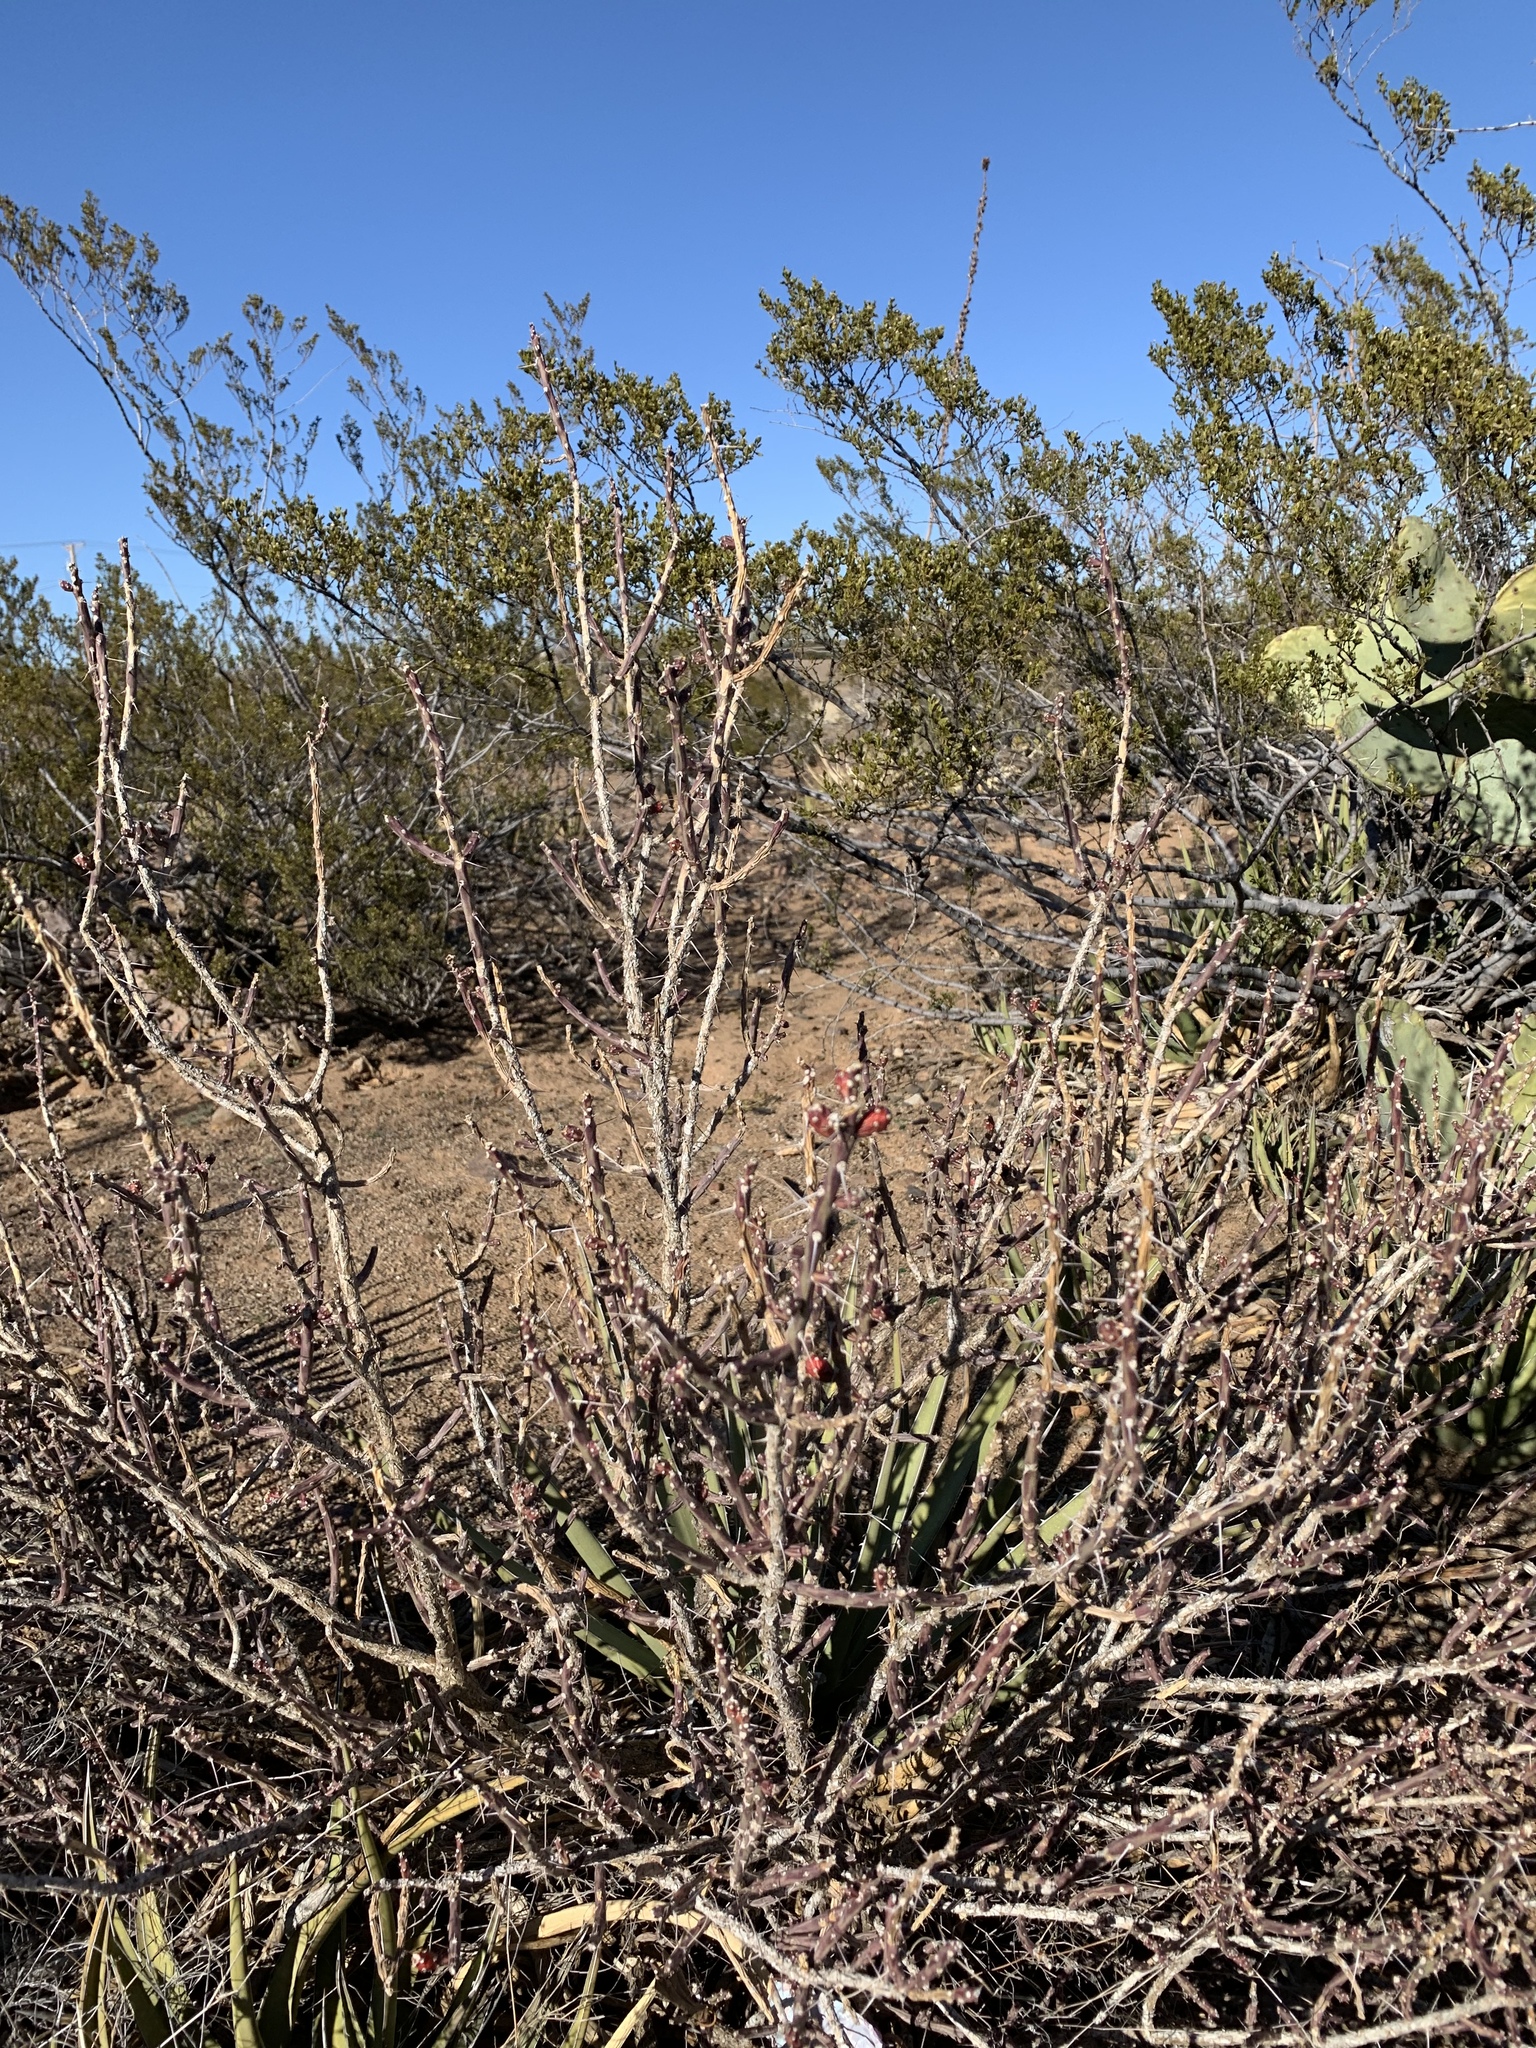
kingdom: Plantae
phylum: Tracheophyta
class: Magnoliopsida
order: Caryophyllales
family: Cactaceae
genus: Cylindropuntia
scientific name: Cylindropuntia leptocaulis
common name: Christmas cactus
